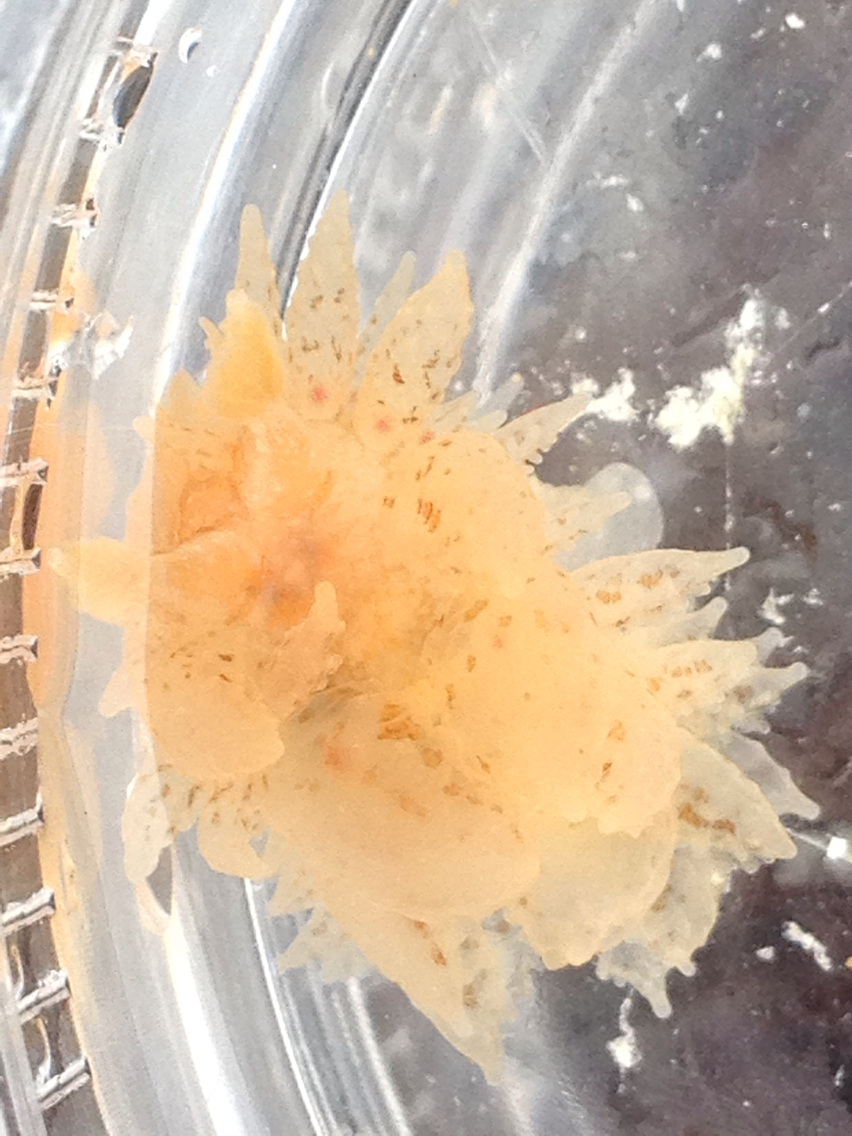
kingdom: Animalia
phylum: Mollusca
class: Gastropoda
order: Nudibranchia
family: Dironidae
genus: Dirona
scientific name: Dirona picta
